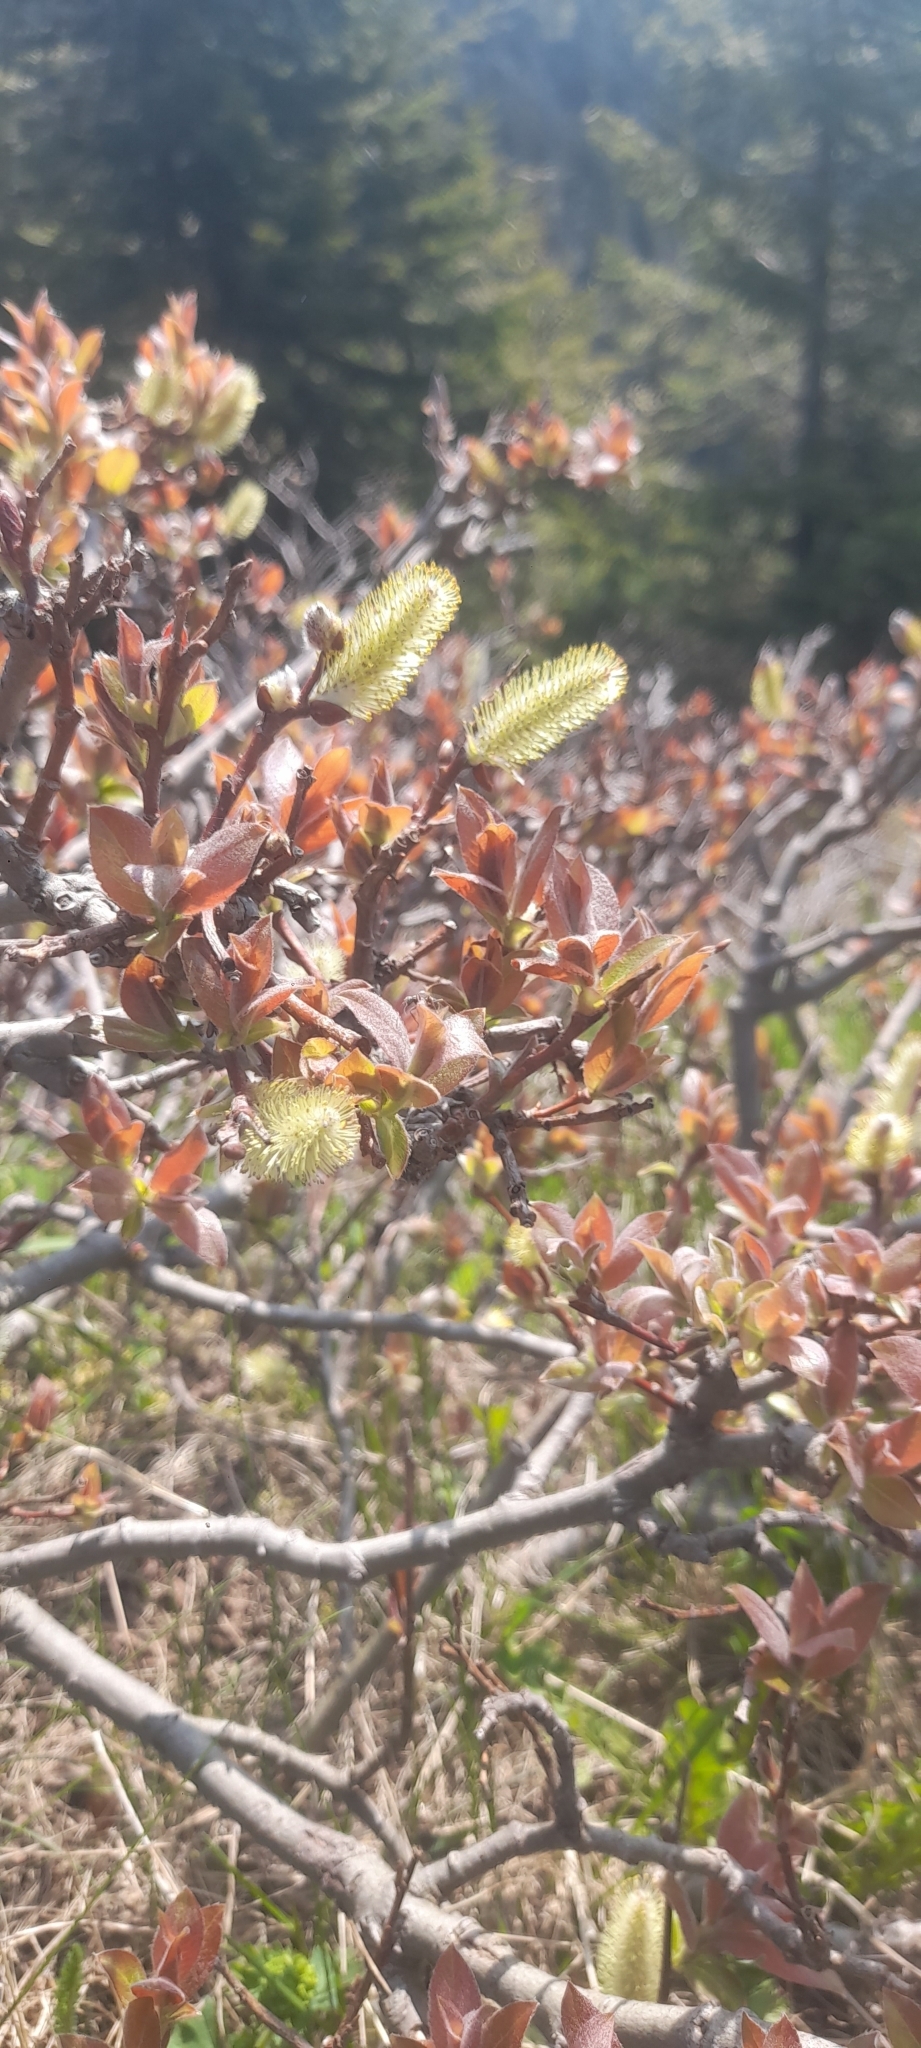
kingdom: Plantae
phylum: Tracheophyta
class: Magnoliopsida
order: Malpighiales
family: Salicaceae
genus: Salix
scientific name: Salix silesiaca
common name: Silesian willow
